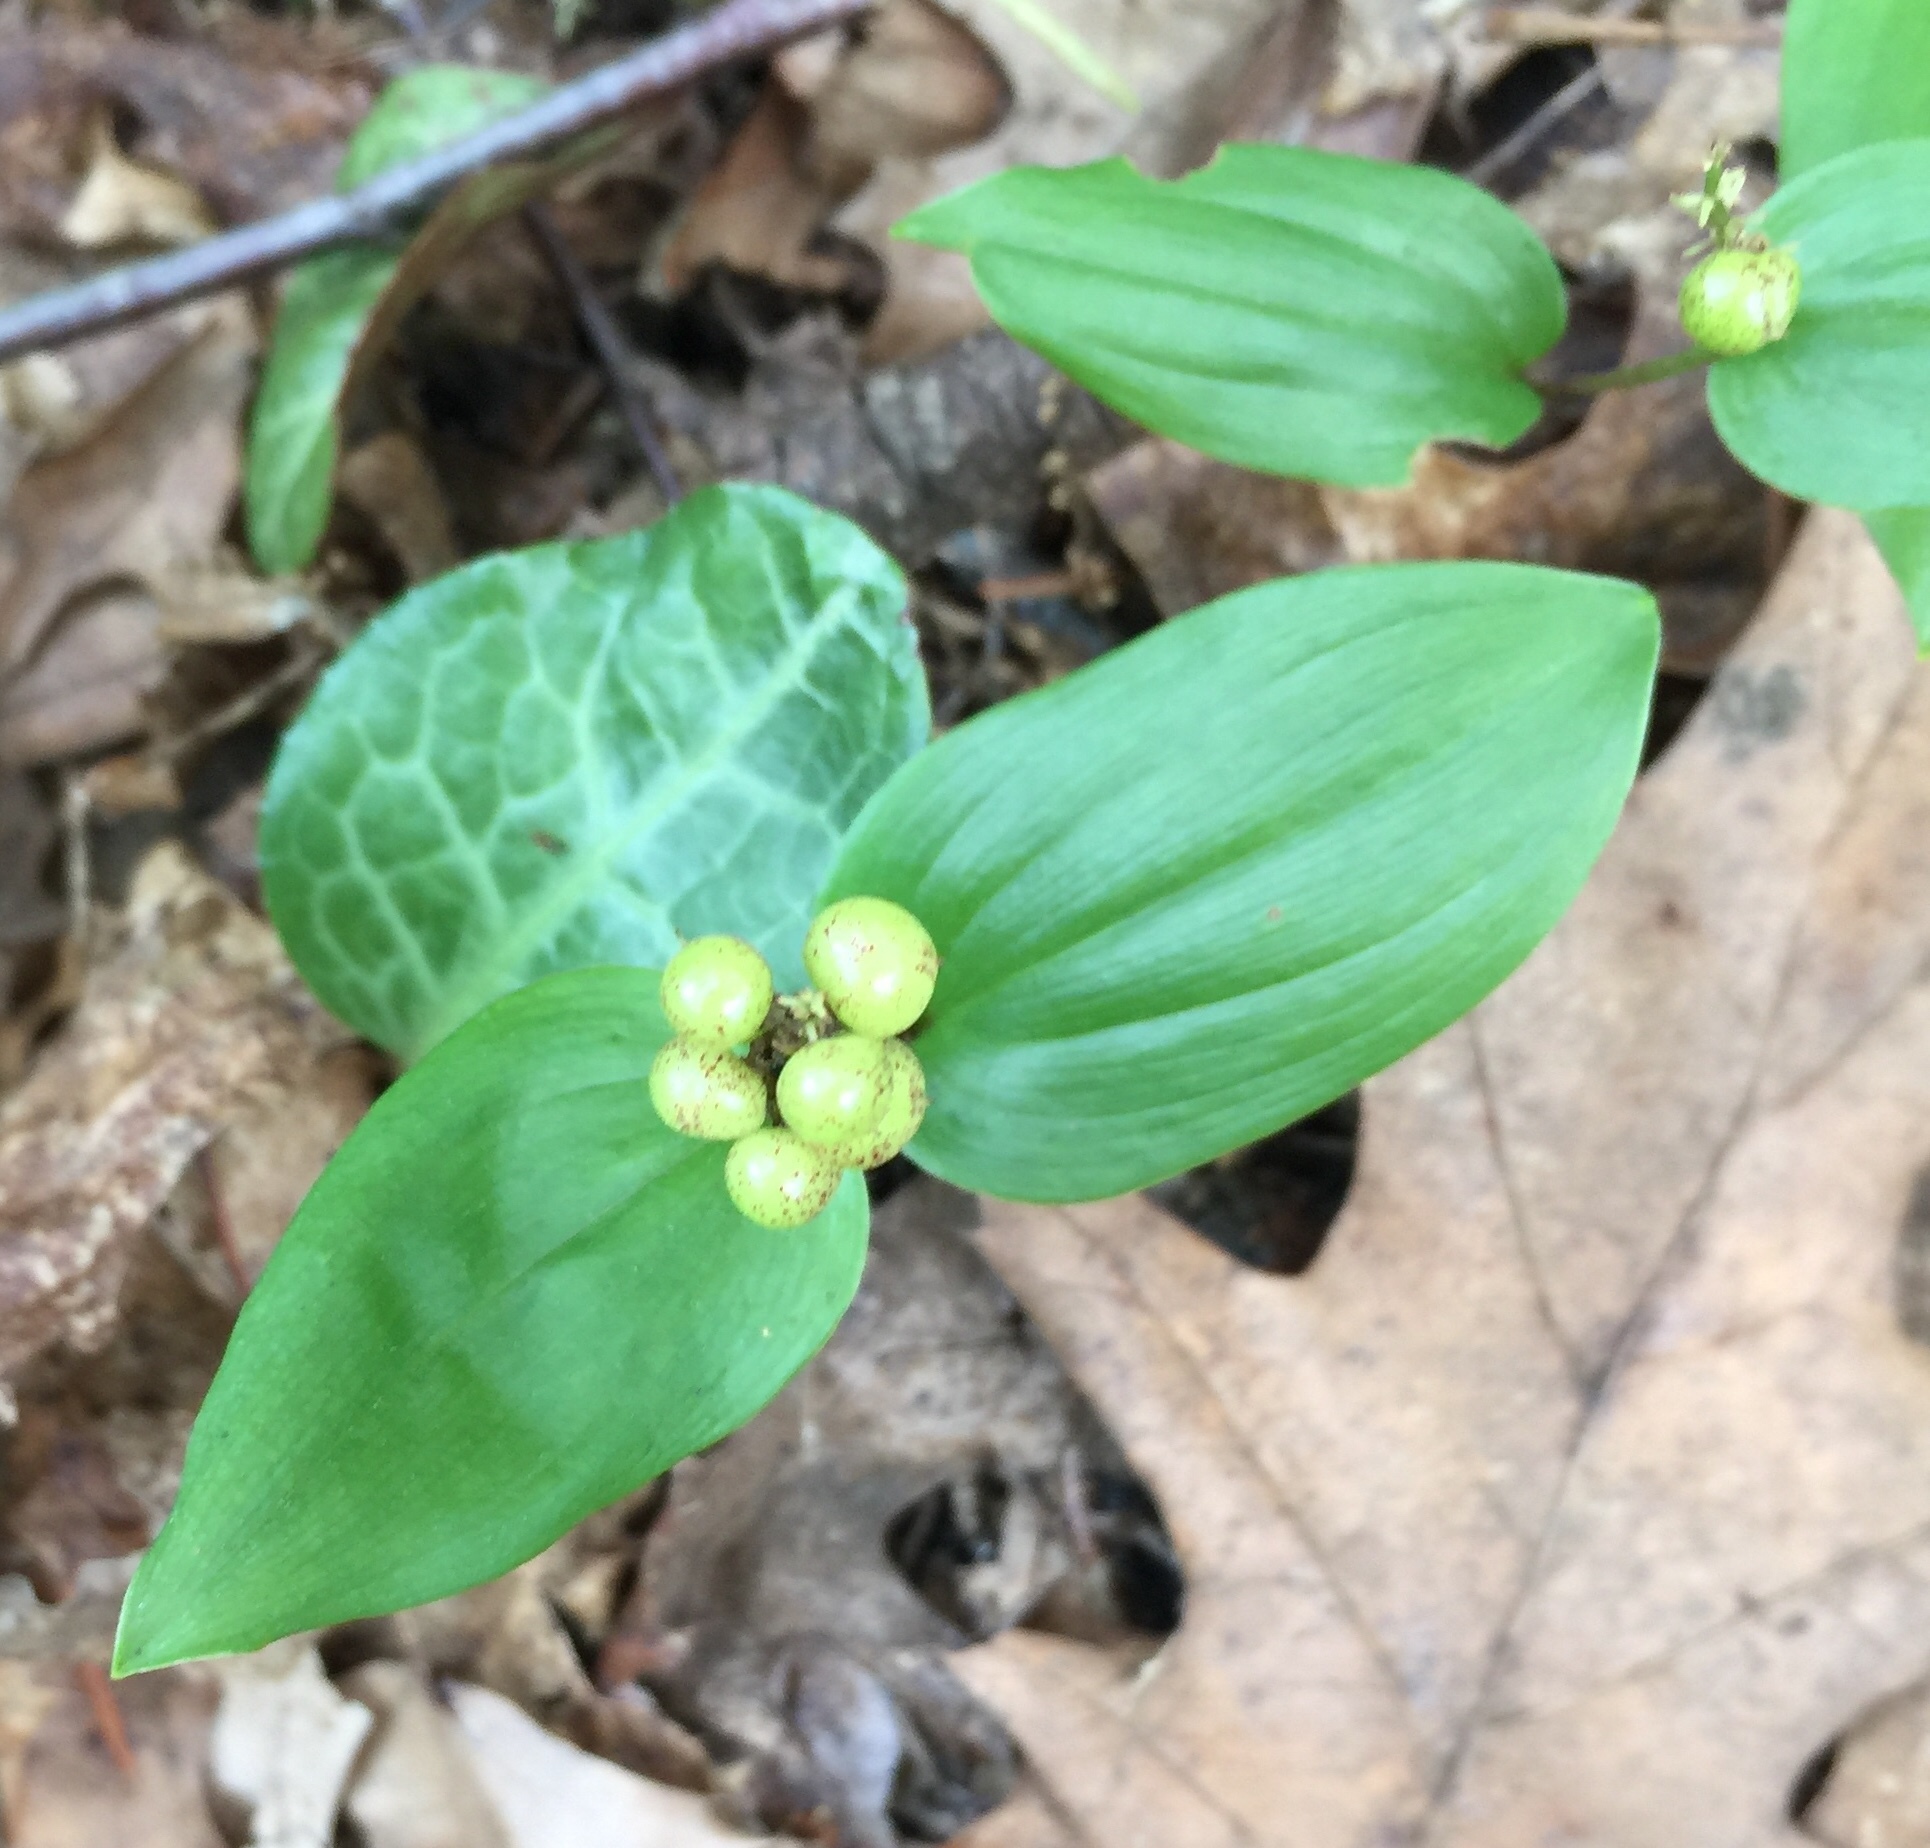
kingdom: Plantae
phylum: Tracheophyta
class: Liliopsida
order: Asparagales
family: Asparagaceae
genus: Maianthemum
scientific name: Maianthemum canadense
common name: False lily-of-the-valley
